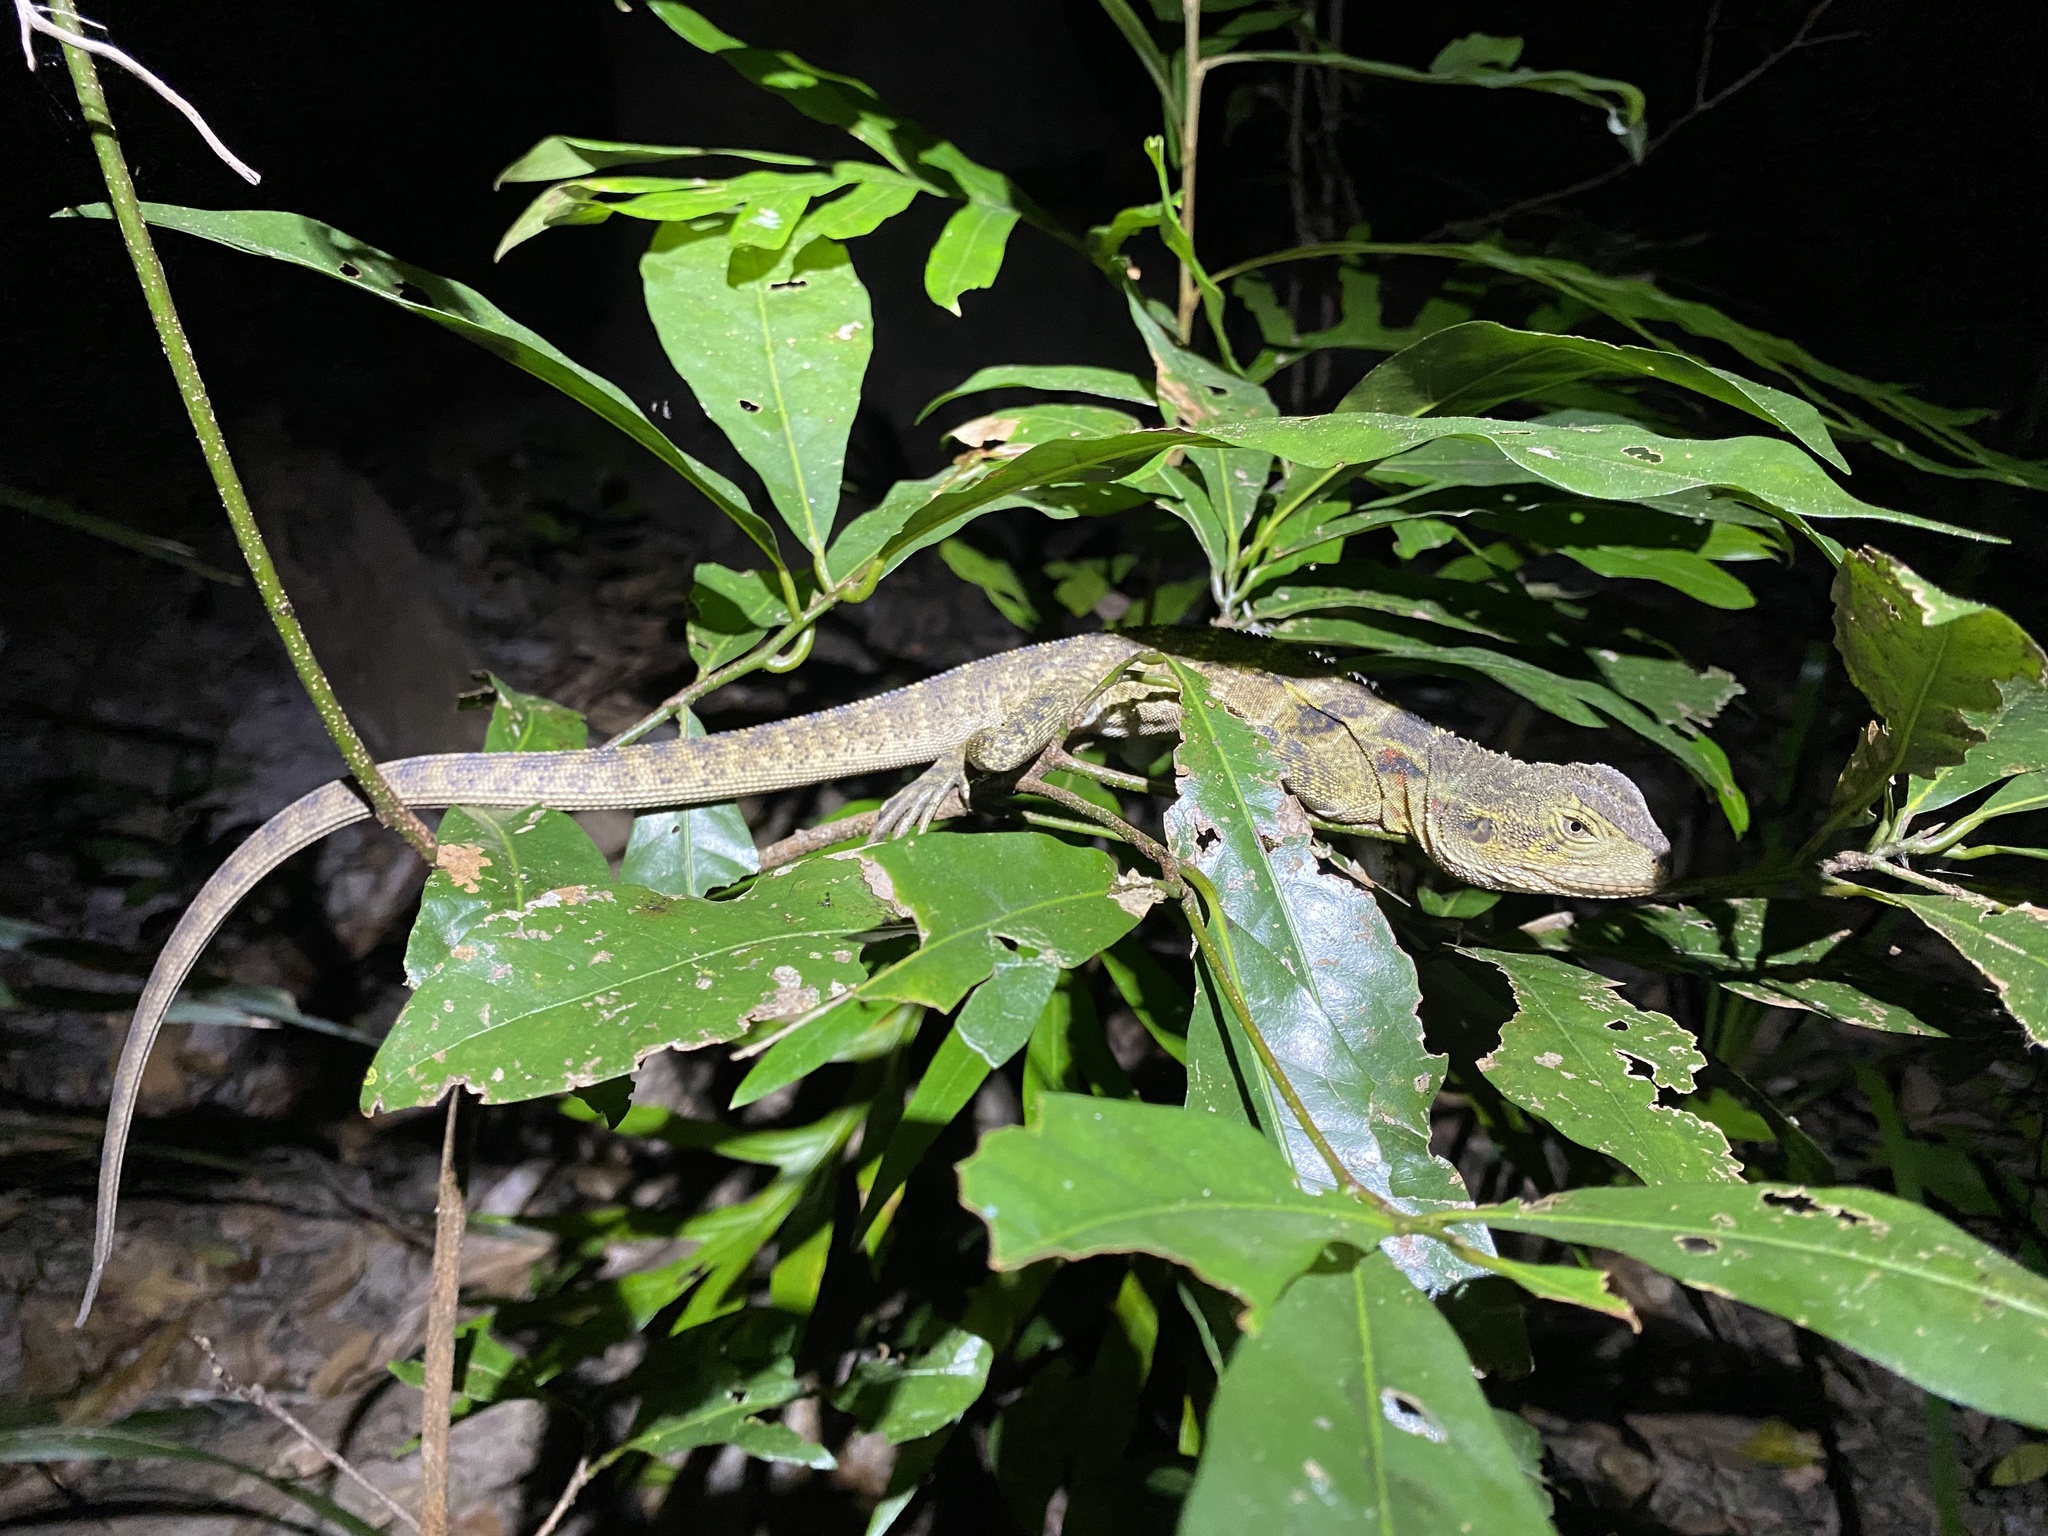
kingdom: Animalia
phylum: Chordata
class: Squamata
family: Agamidae
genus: Intellagama
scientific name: Intellagama lesueurii
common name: Eastern water dragon
